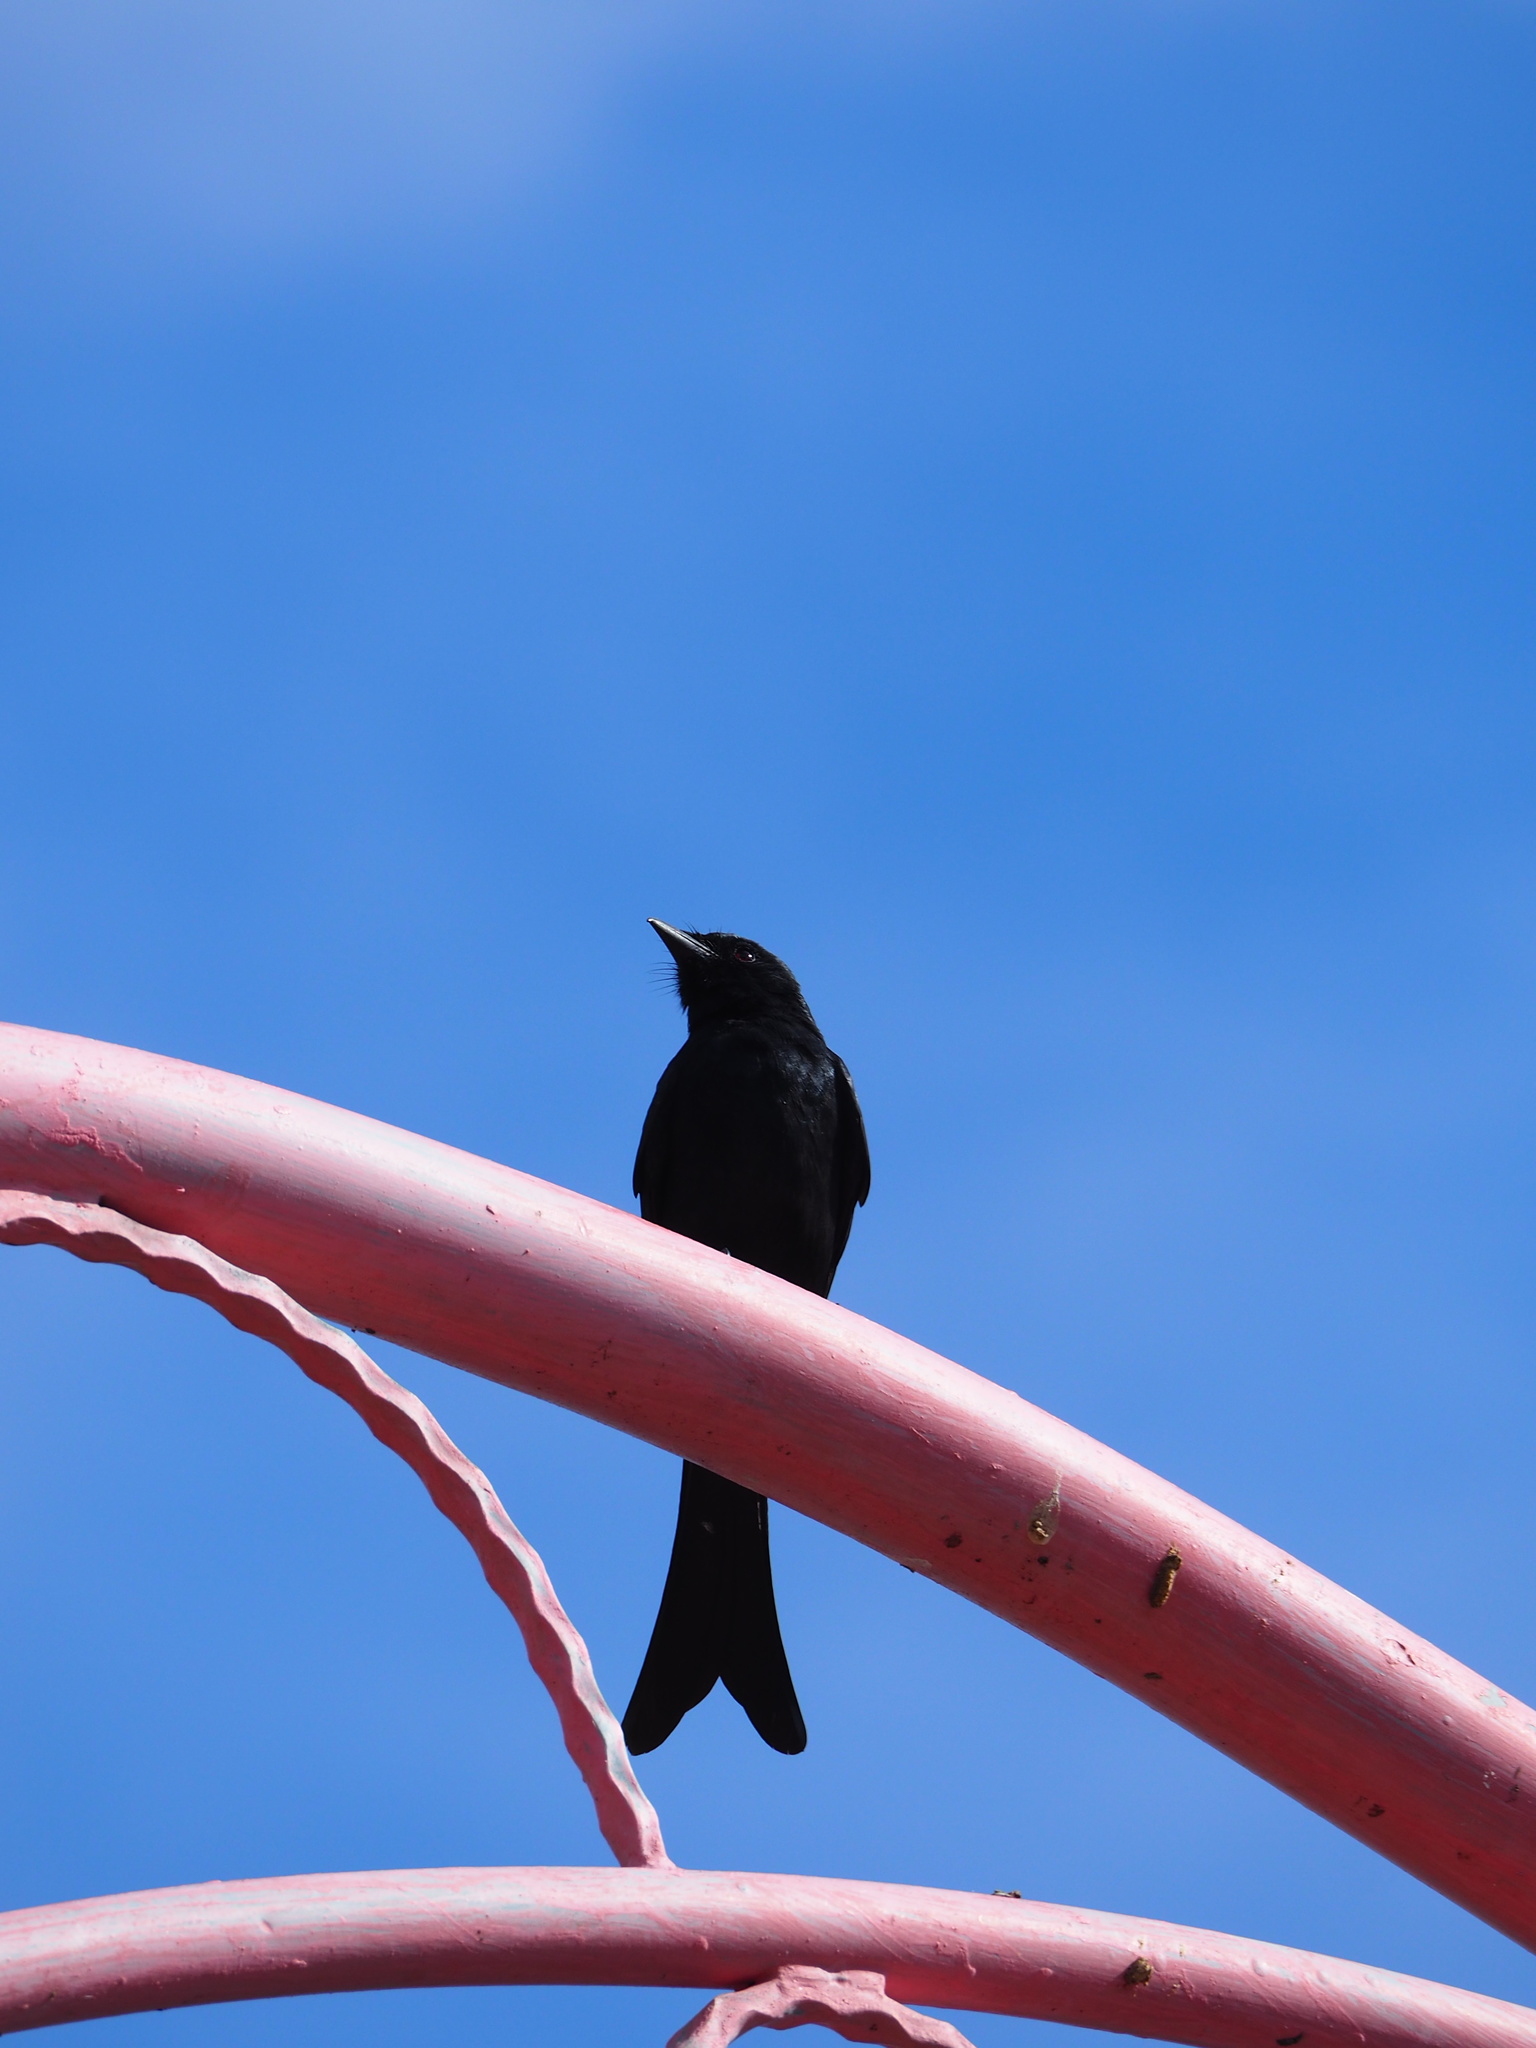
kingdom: Animalia
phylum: Chordata
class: Aves
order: Passeriformes
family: Dicruridae
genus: Dicrurus
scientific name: Dicrurus macrocercus
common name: Black drongo
